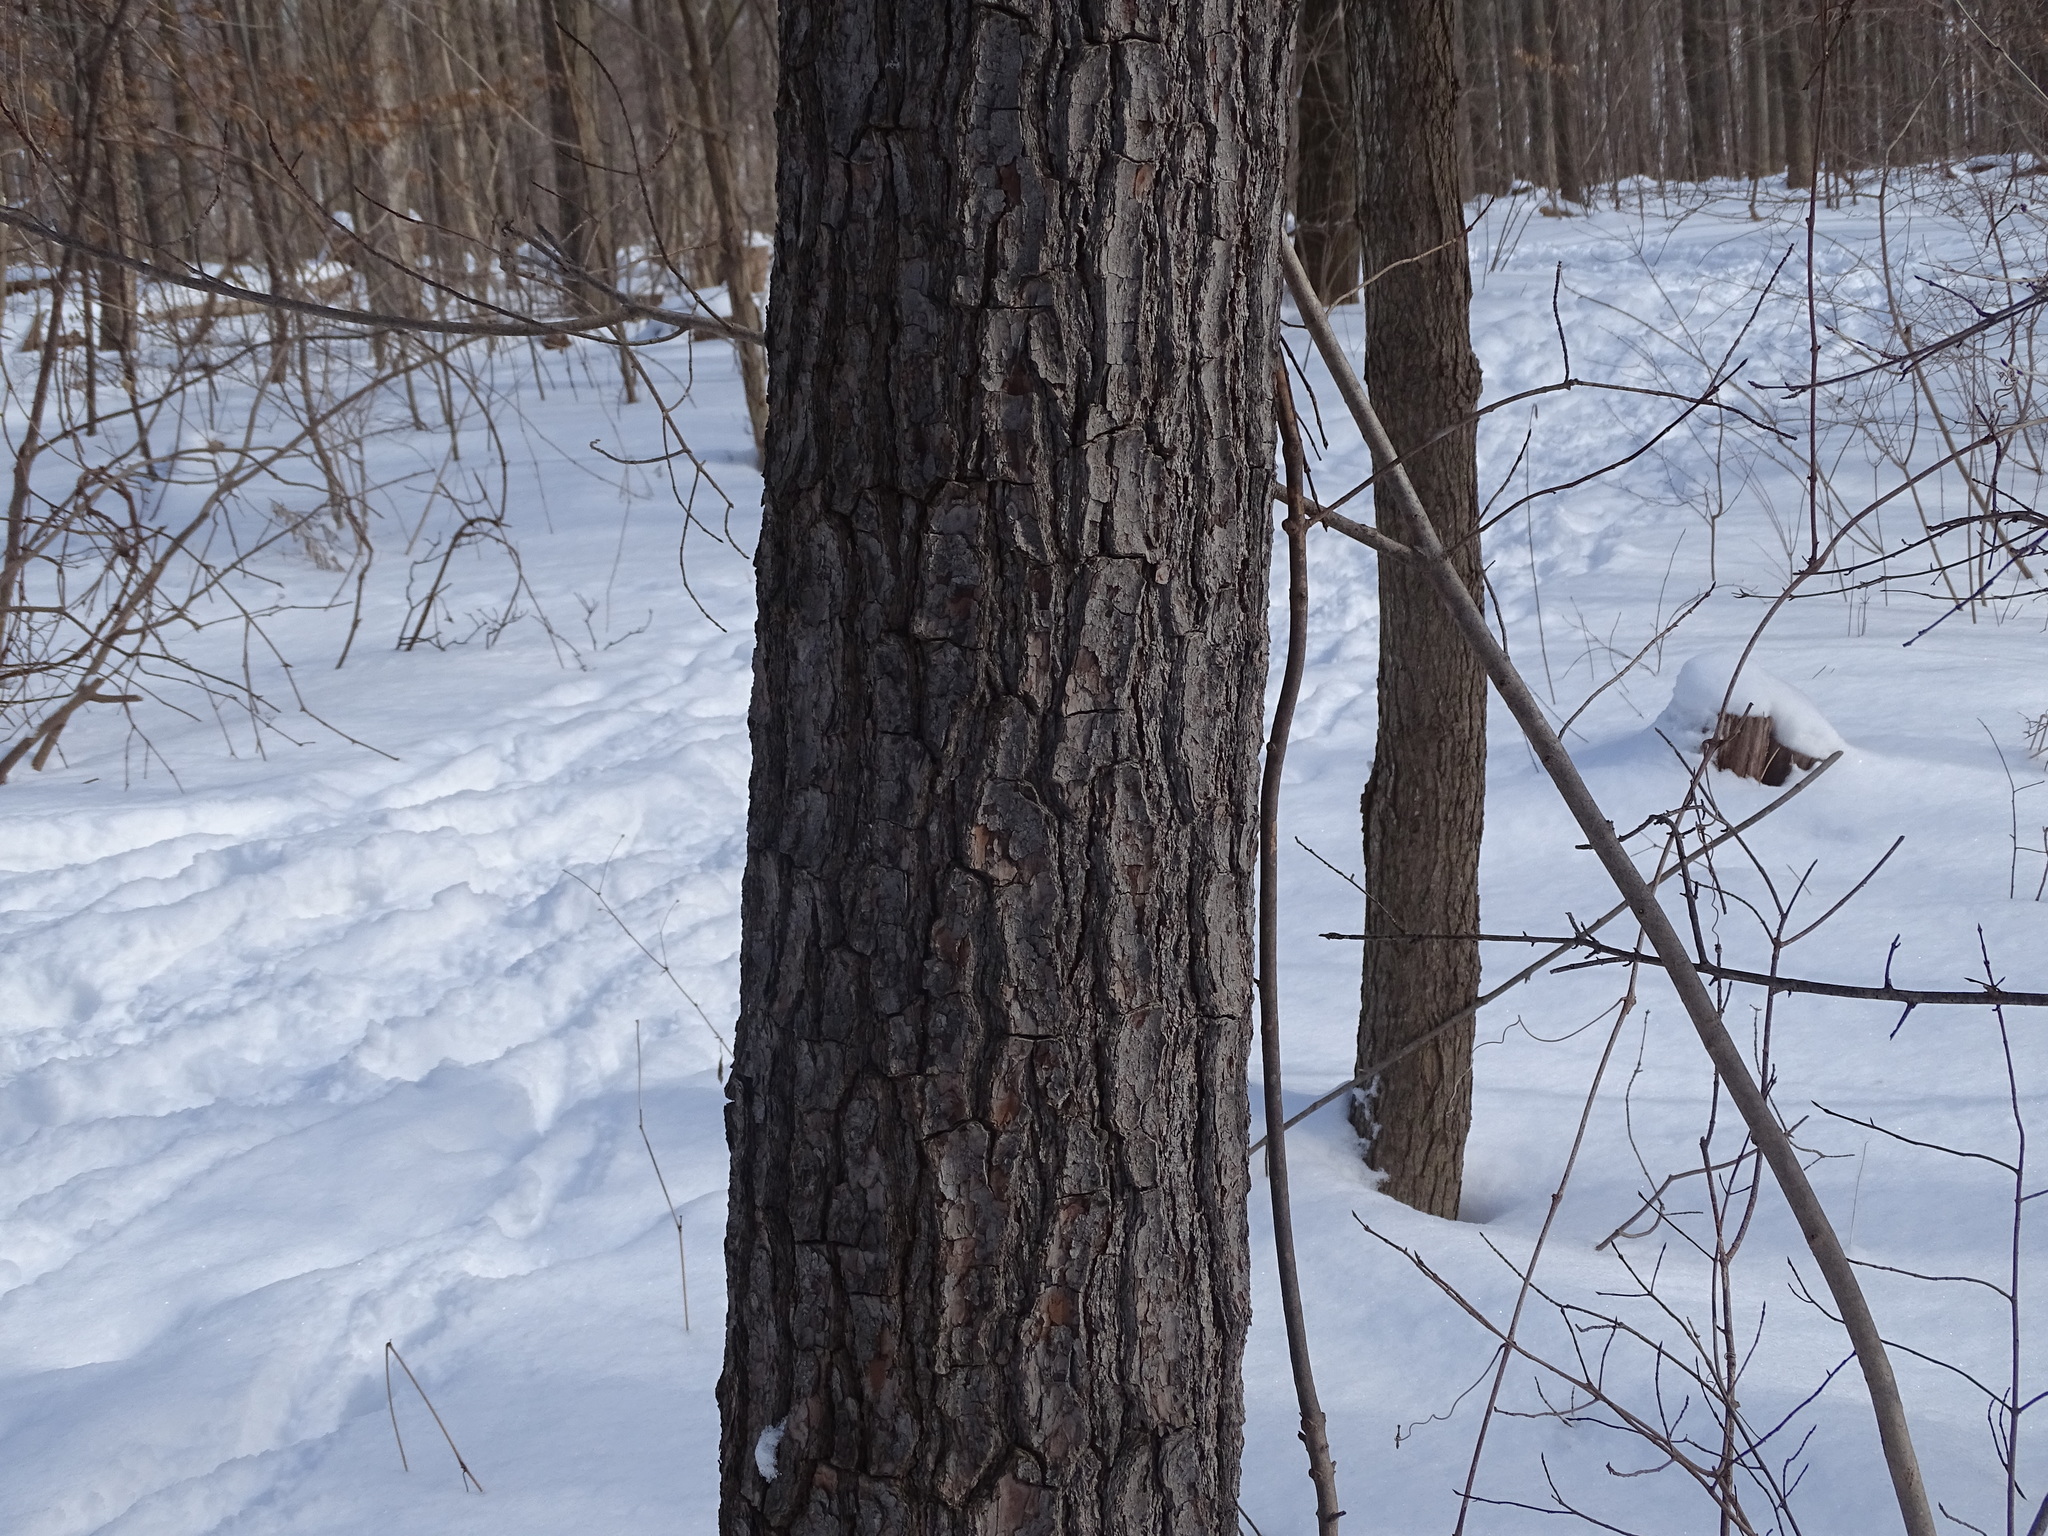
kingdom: Plantae
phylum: Tracheophyta
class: Pinopsida
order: Pinales
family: Pinaceae
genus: Pinus
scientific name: Pinus strobus
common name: Weymouth pine
